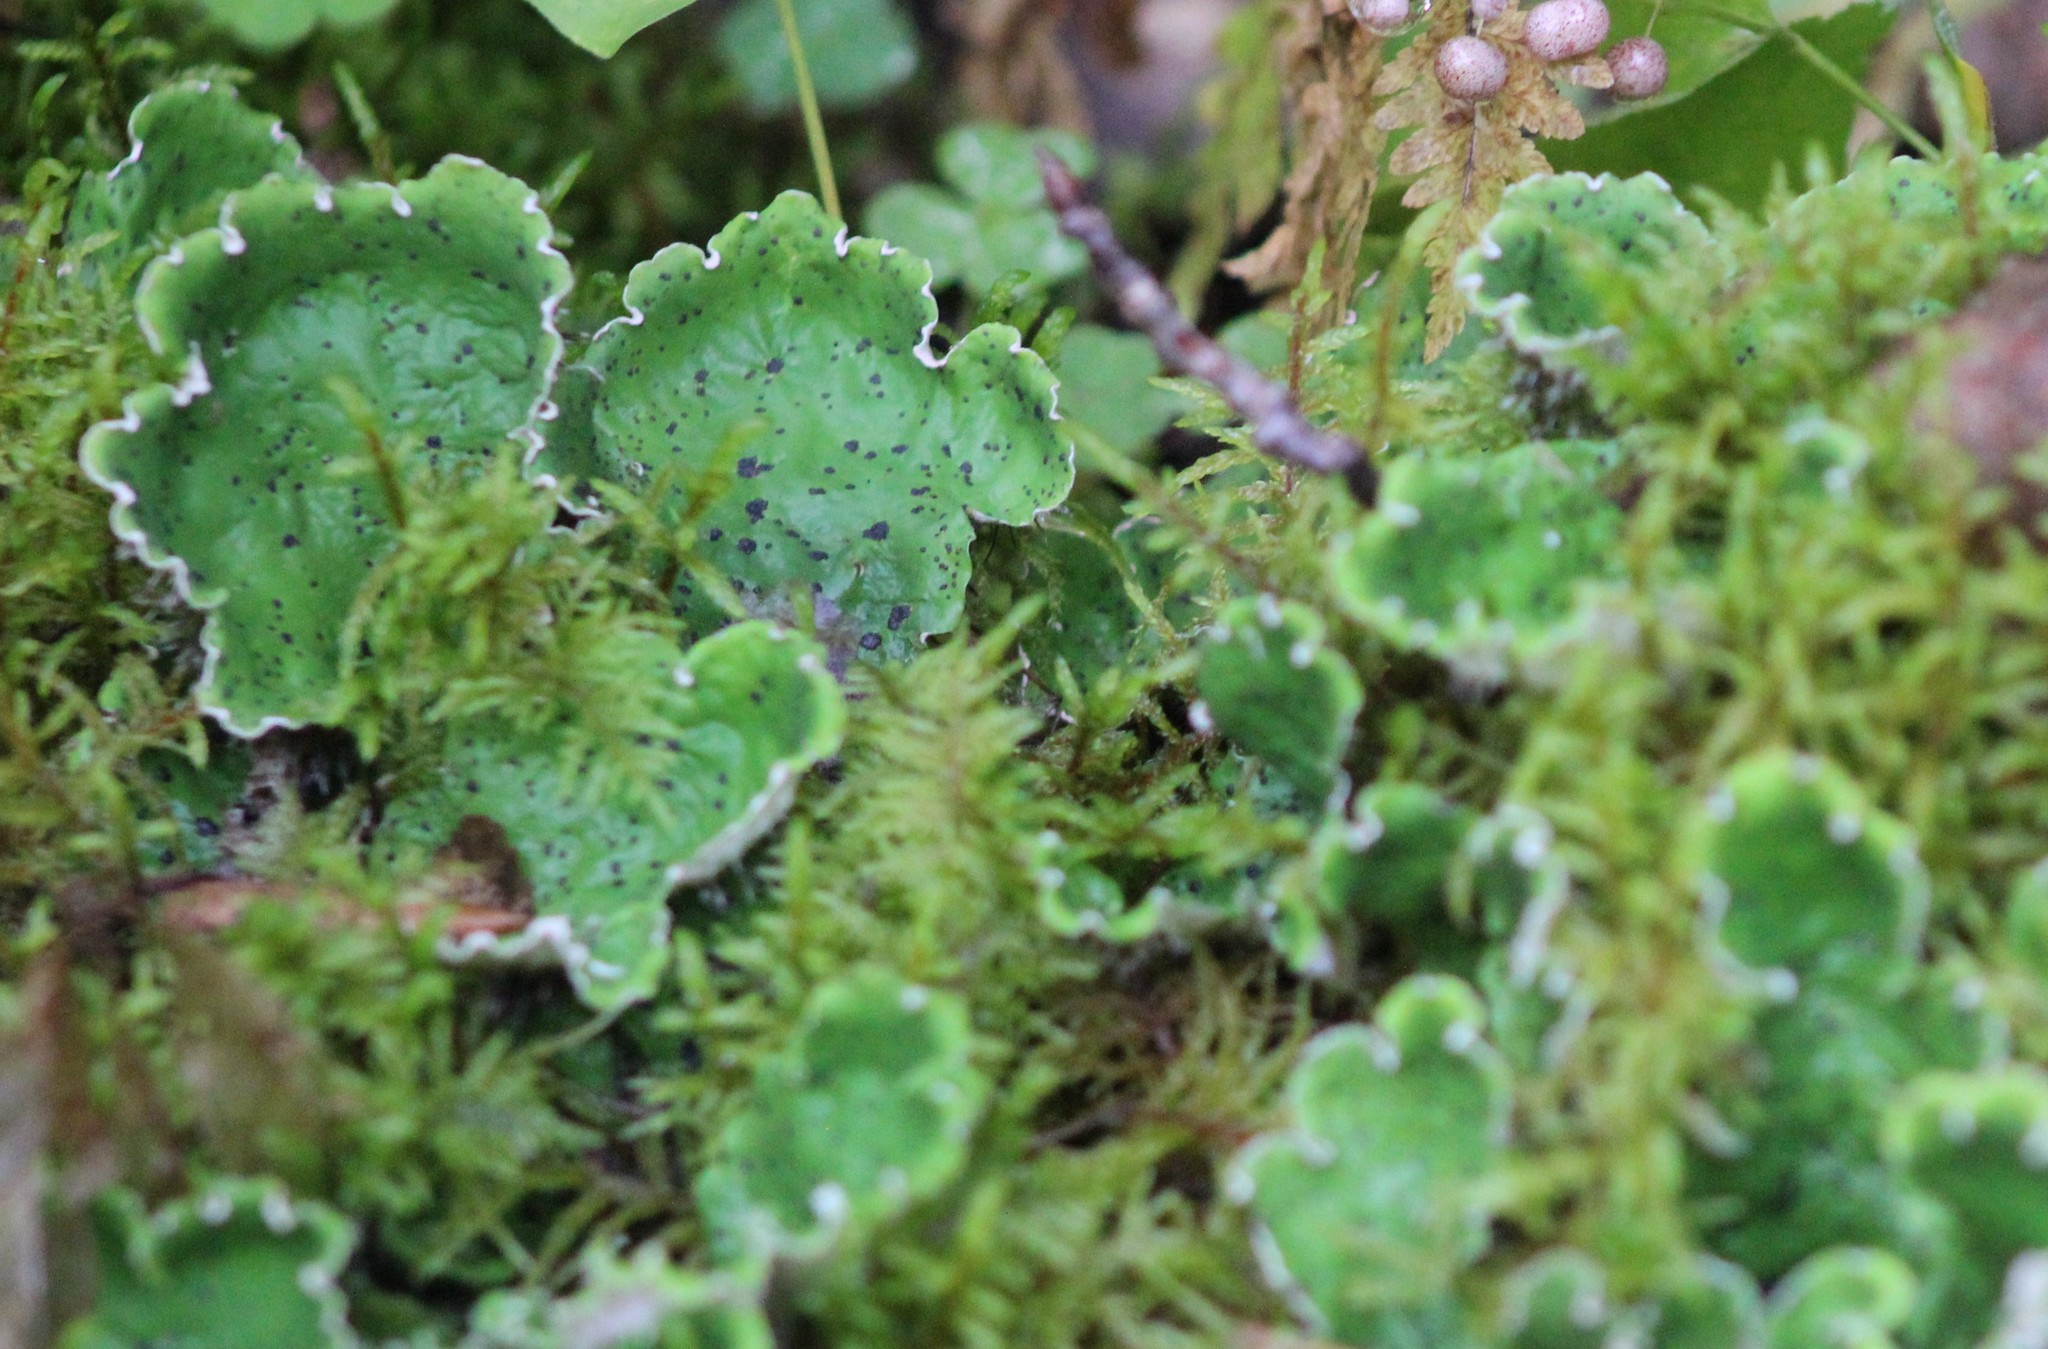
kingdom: Fungi
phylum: Ascomycota
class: Lecanoromycetes
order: Peltigerales
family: Peltigeraceae
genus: Peltigera
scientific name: Peltigera aphthosa
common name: Common freckle pelt lichen
